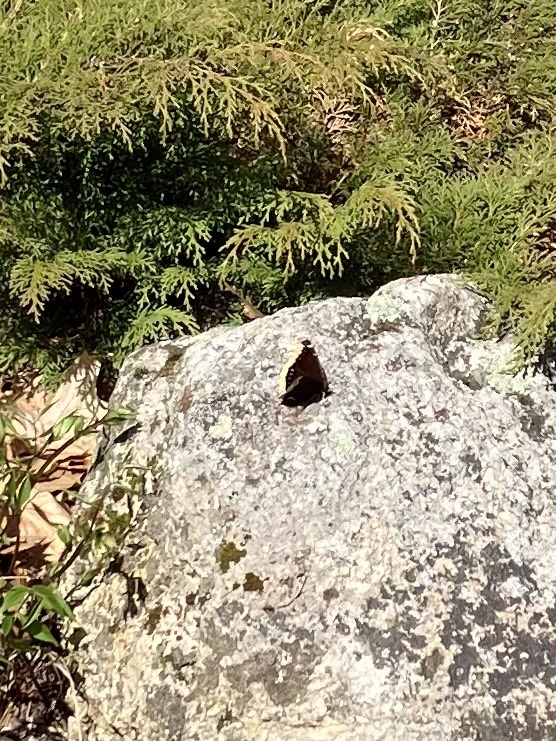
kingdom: Animalia
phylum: Arthropoda
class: Insecta
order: Lepidoptera
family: Nymphalidae
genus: Nymphalis
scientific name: Nymphalis antiopa
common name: Camberwell beauty
